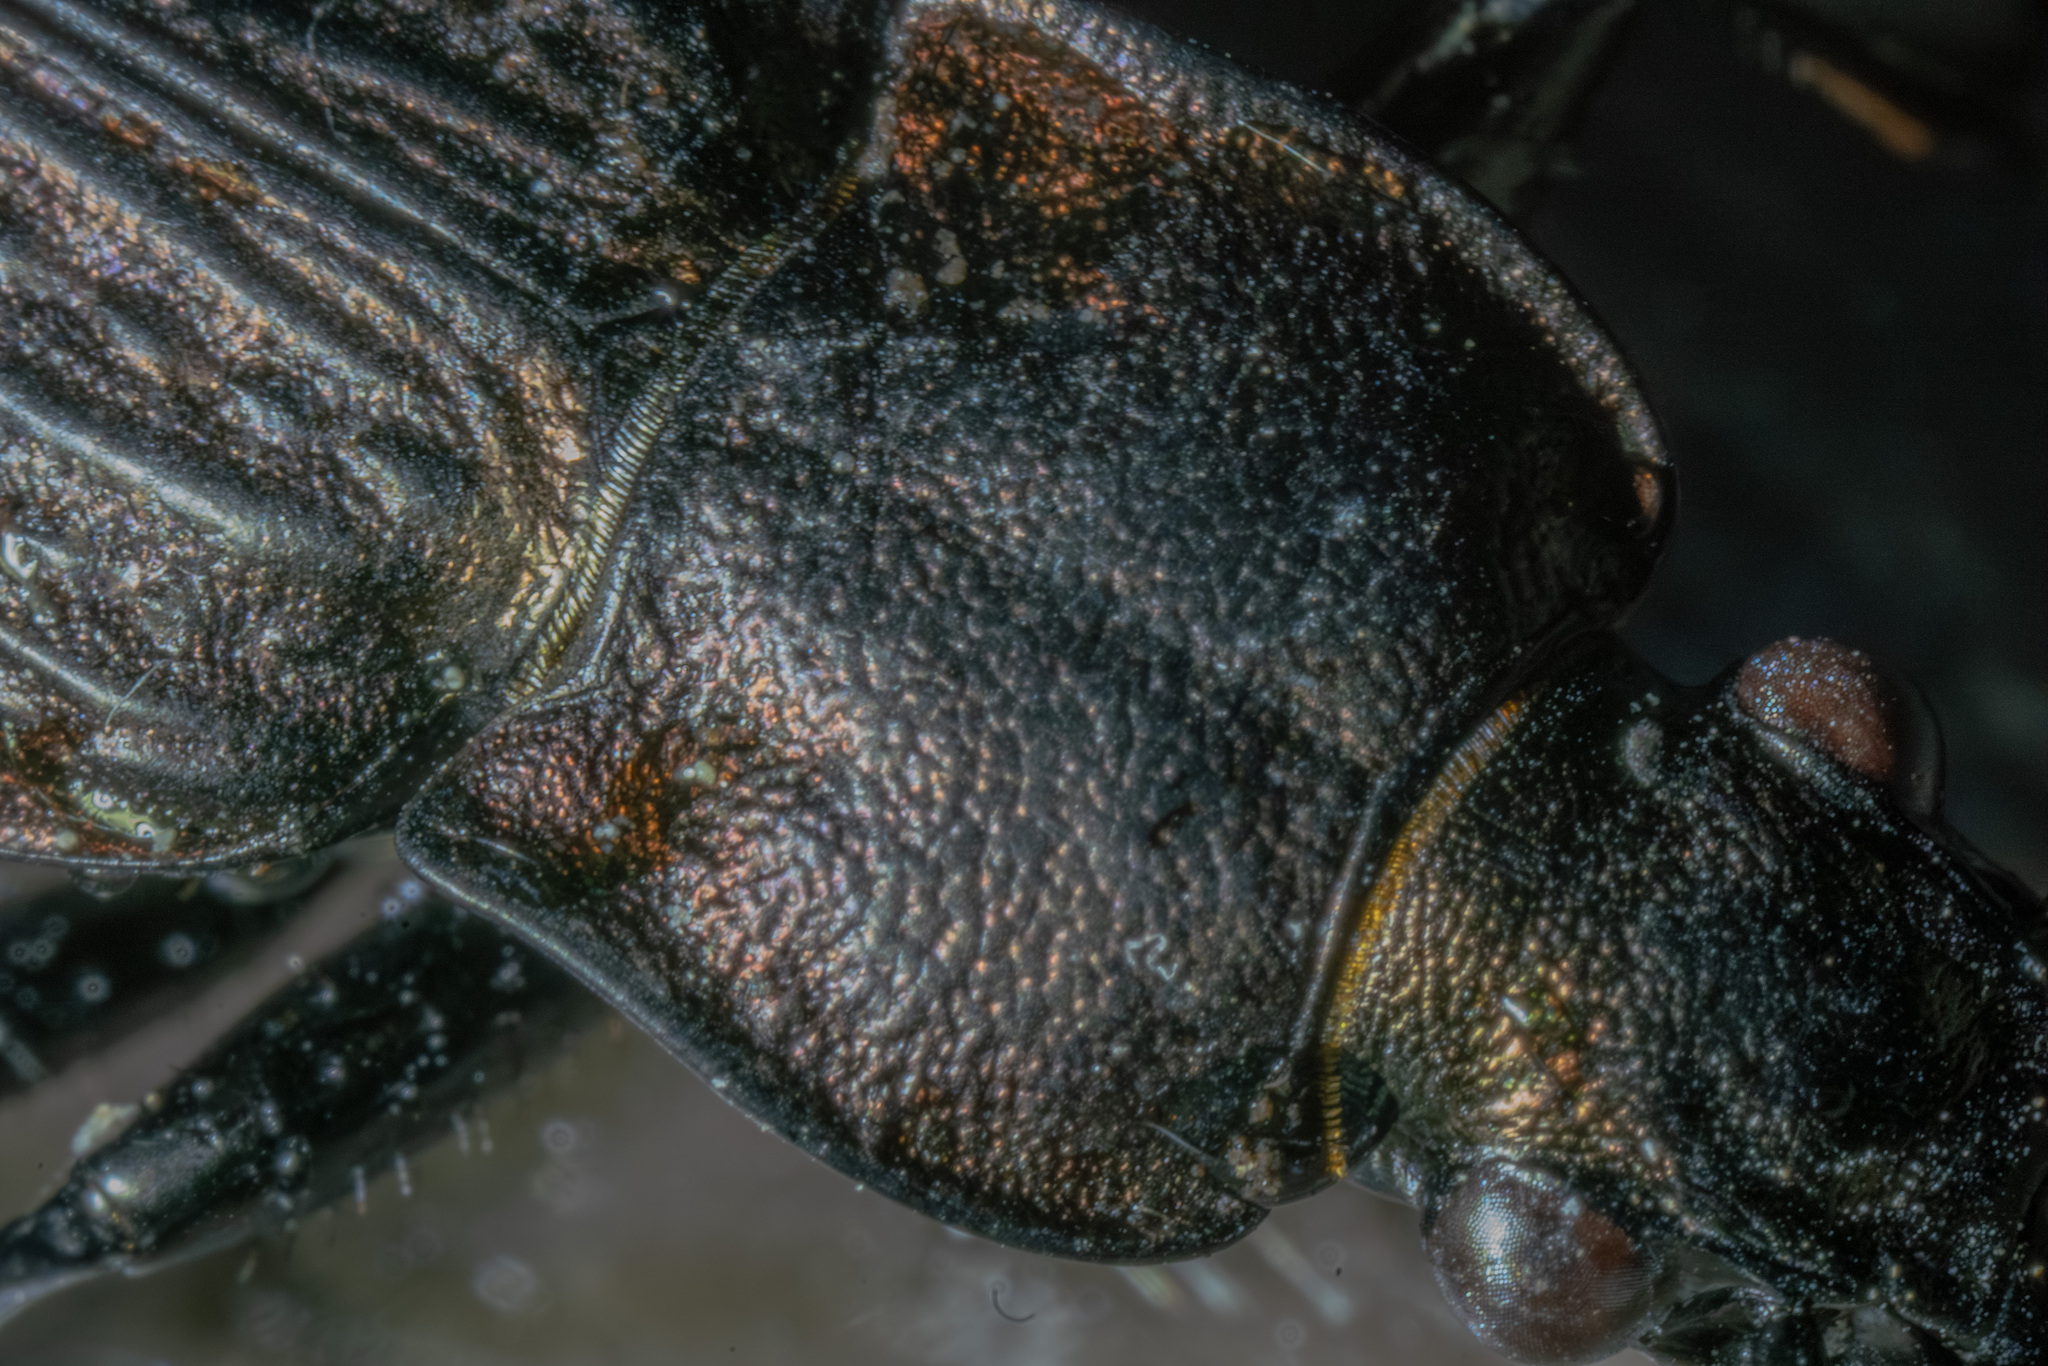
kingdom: Animalia
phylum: Arthropoda
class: Insecta
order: Coleoptera
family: Carabidae
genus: Carabus
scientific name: Carabus granulatus
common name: Granulate ground beetle
